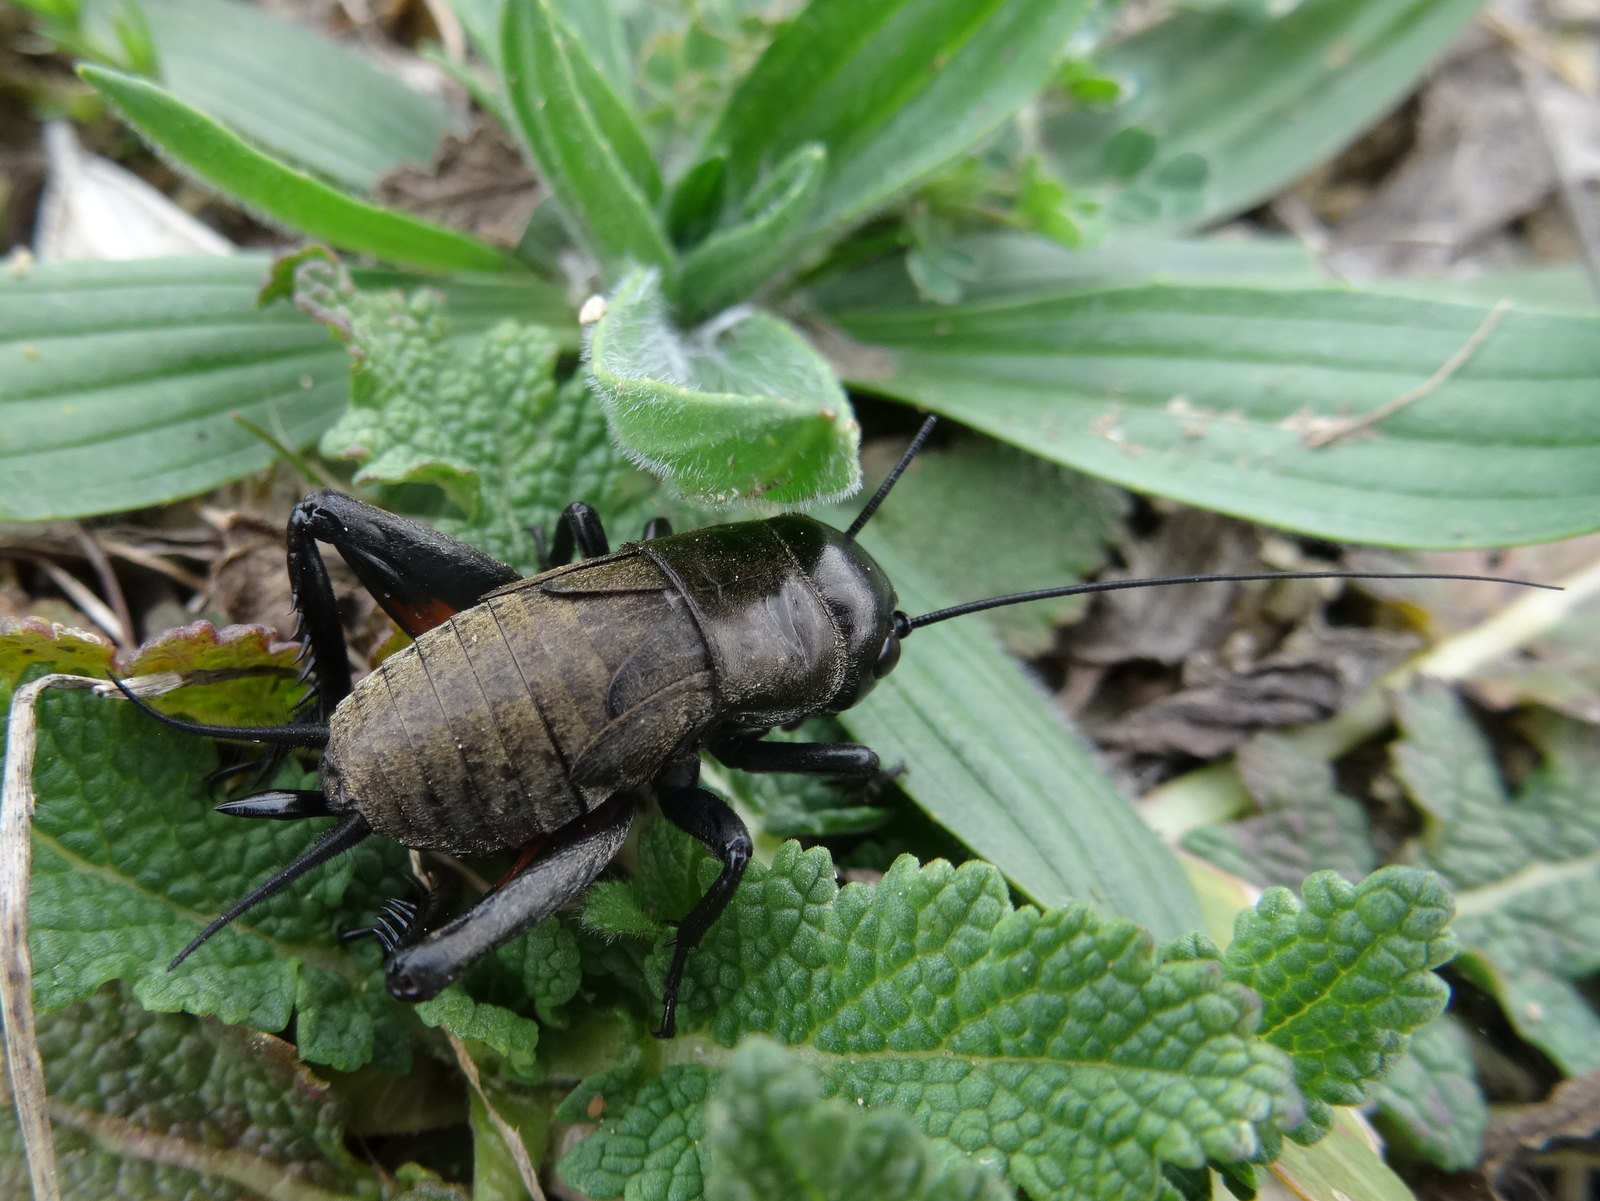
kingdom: Animalia
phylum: Arthropoda
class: Insecta
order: Orthoptera
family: Gryllidae
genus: Gryllus
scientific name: Gryllus campestris
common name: Field cricket
